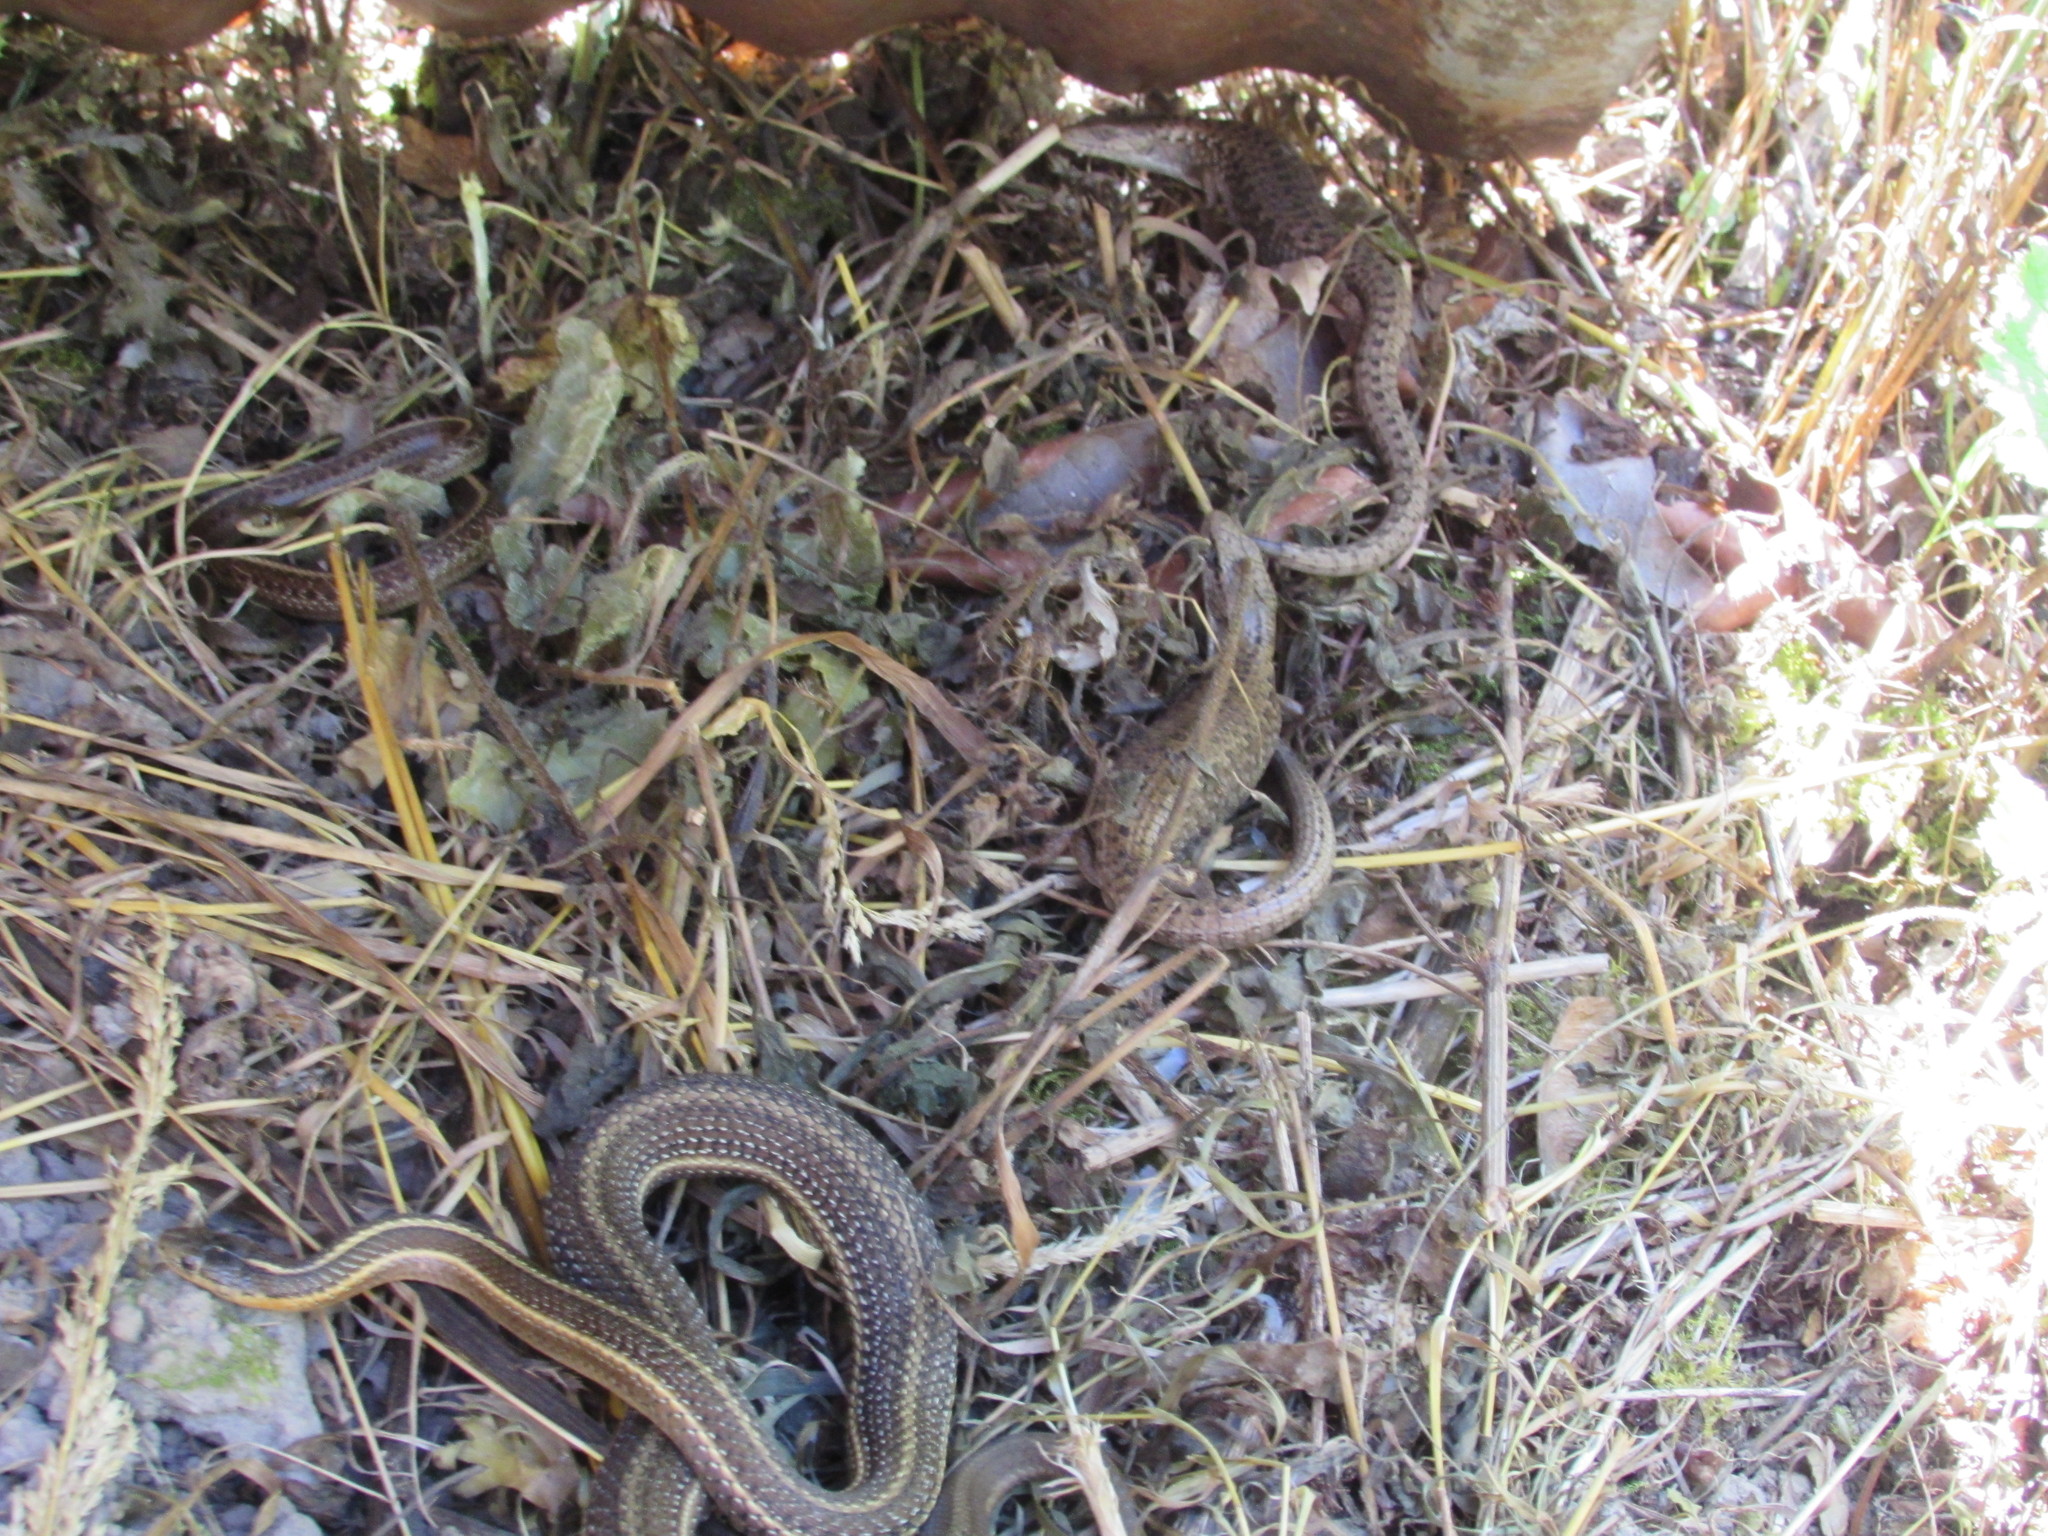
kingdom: Animalia
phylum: Chordata
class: Squamata
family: Colubridae
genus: Thamnophis
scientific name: Thamnophis ordinoides
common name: Northwestern garter snake
